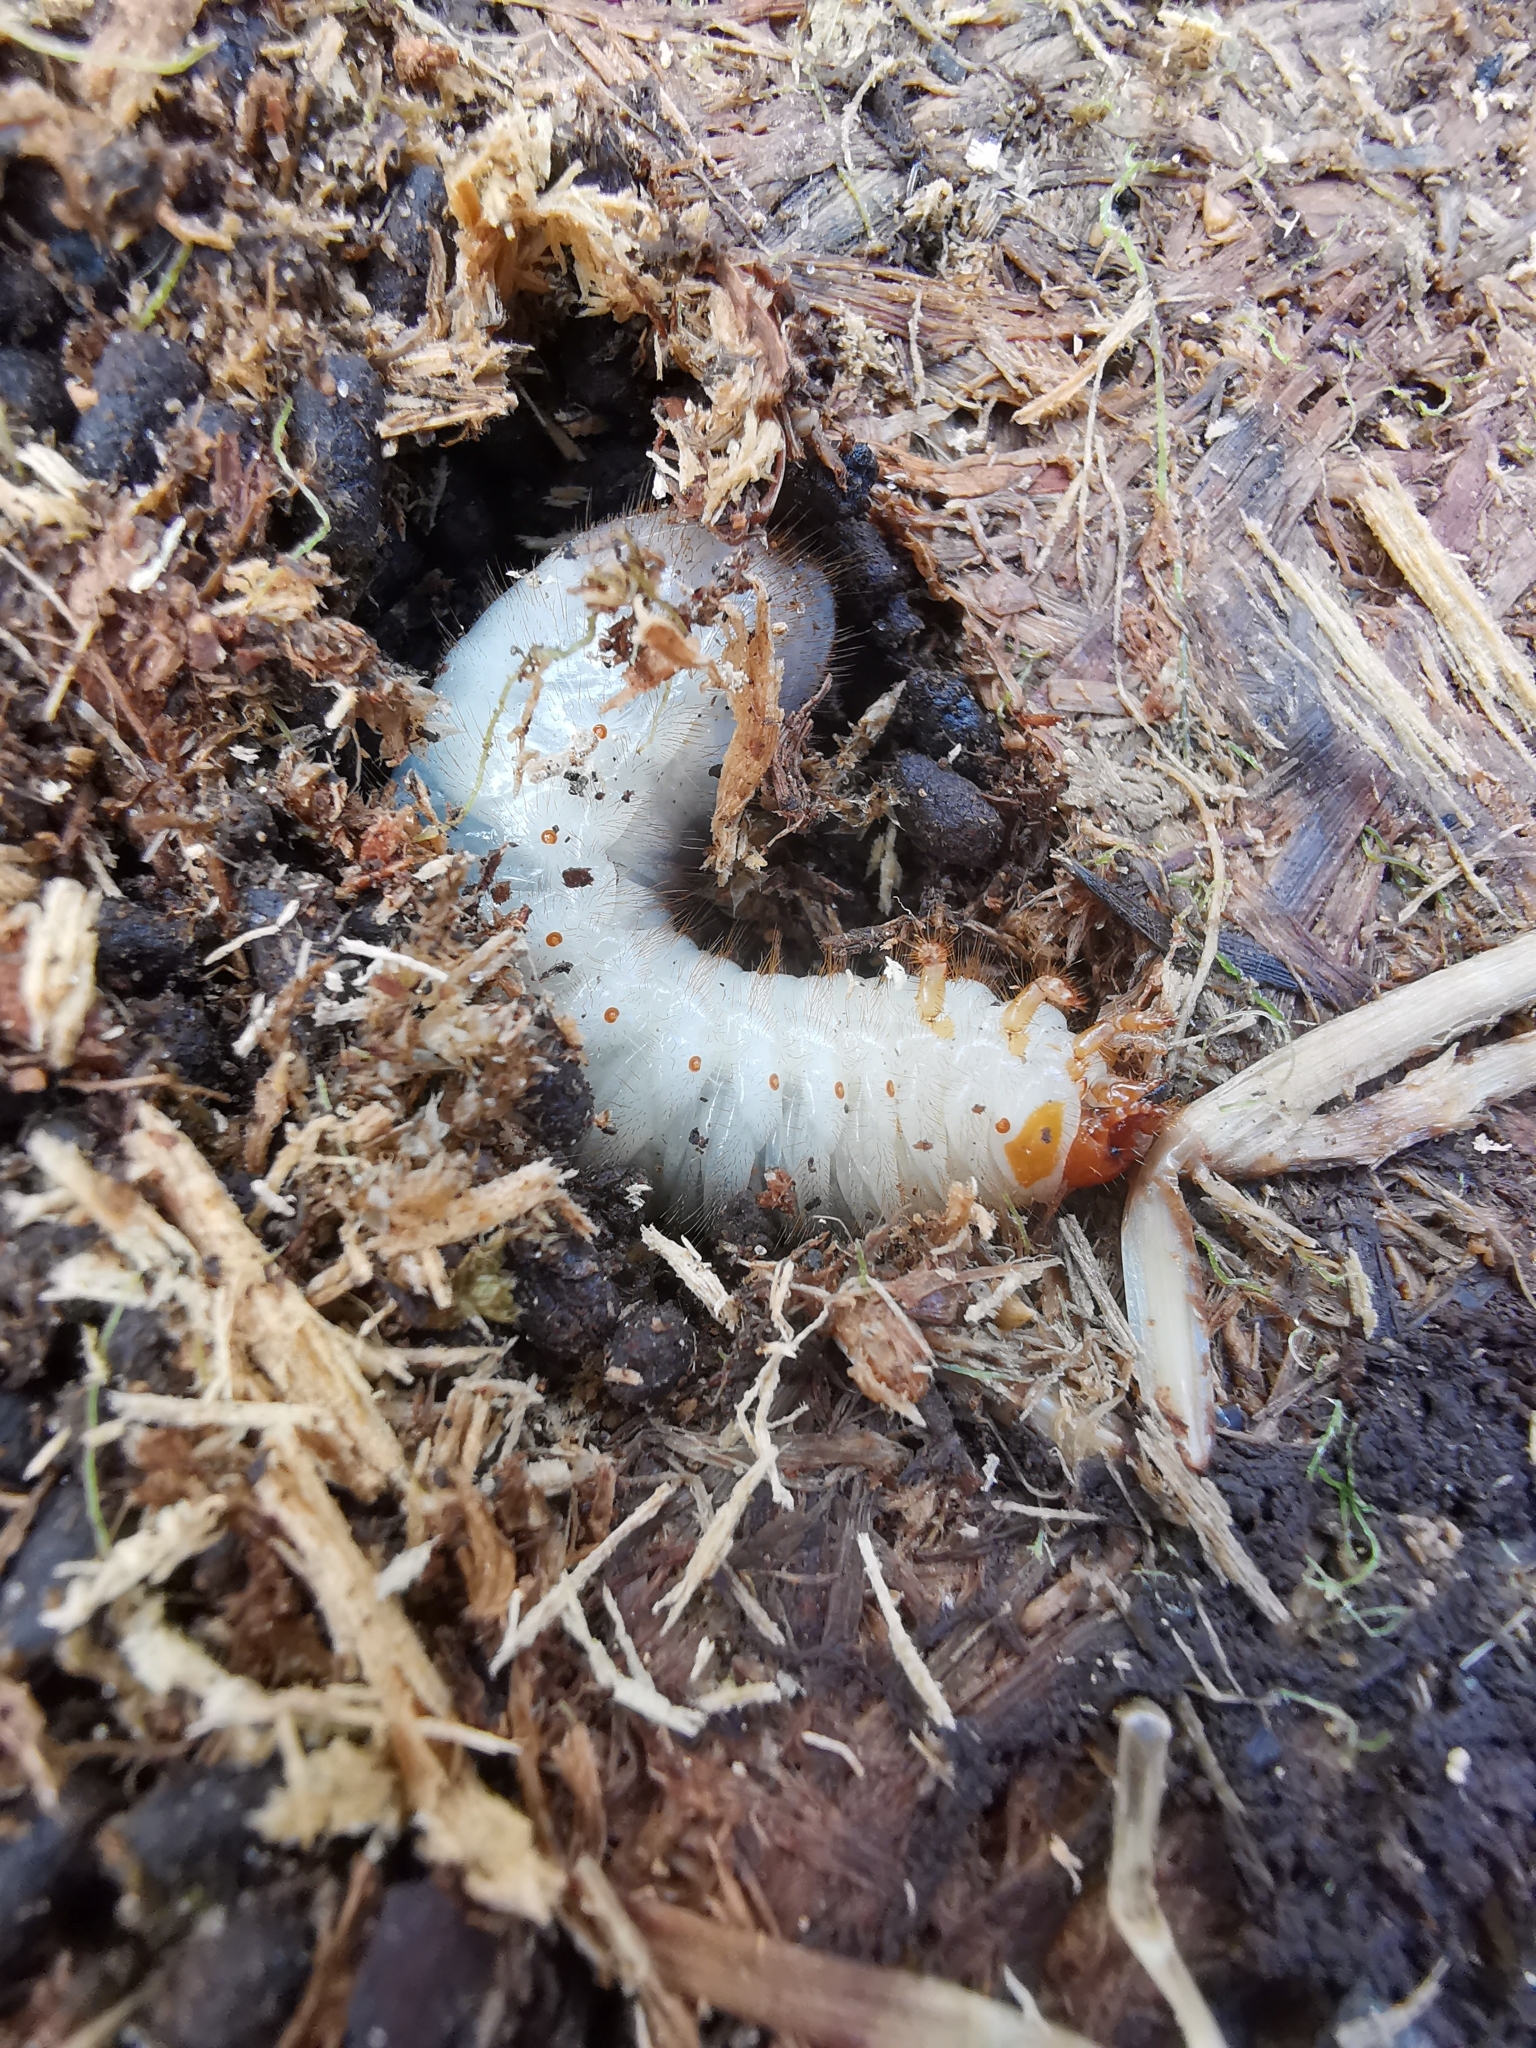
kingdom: Animalia
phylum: Arthropoda
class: Insecta
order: Coleoptera
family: Scarabaeidae
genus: Oryctes
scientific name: Oryctes nasicornis
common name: European rhinoceros beetle
